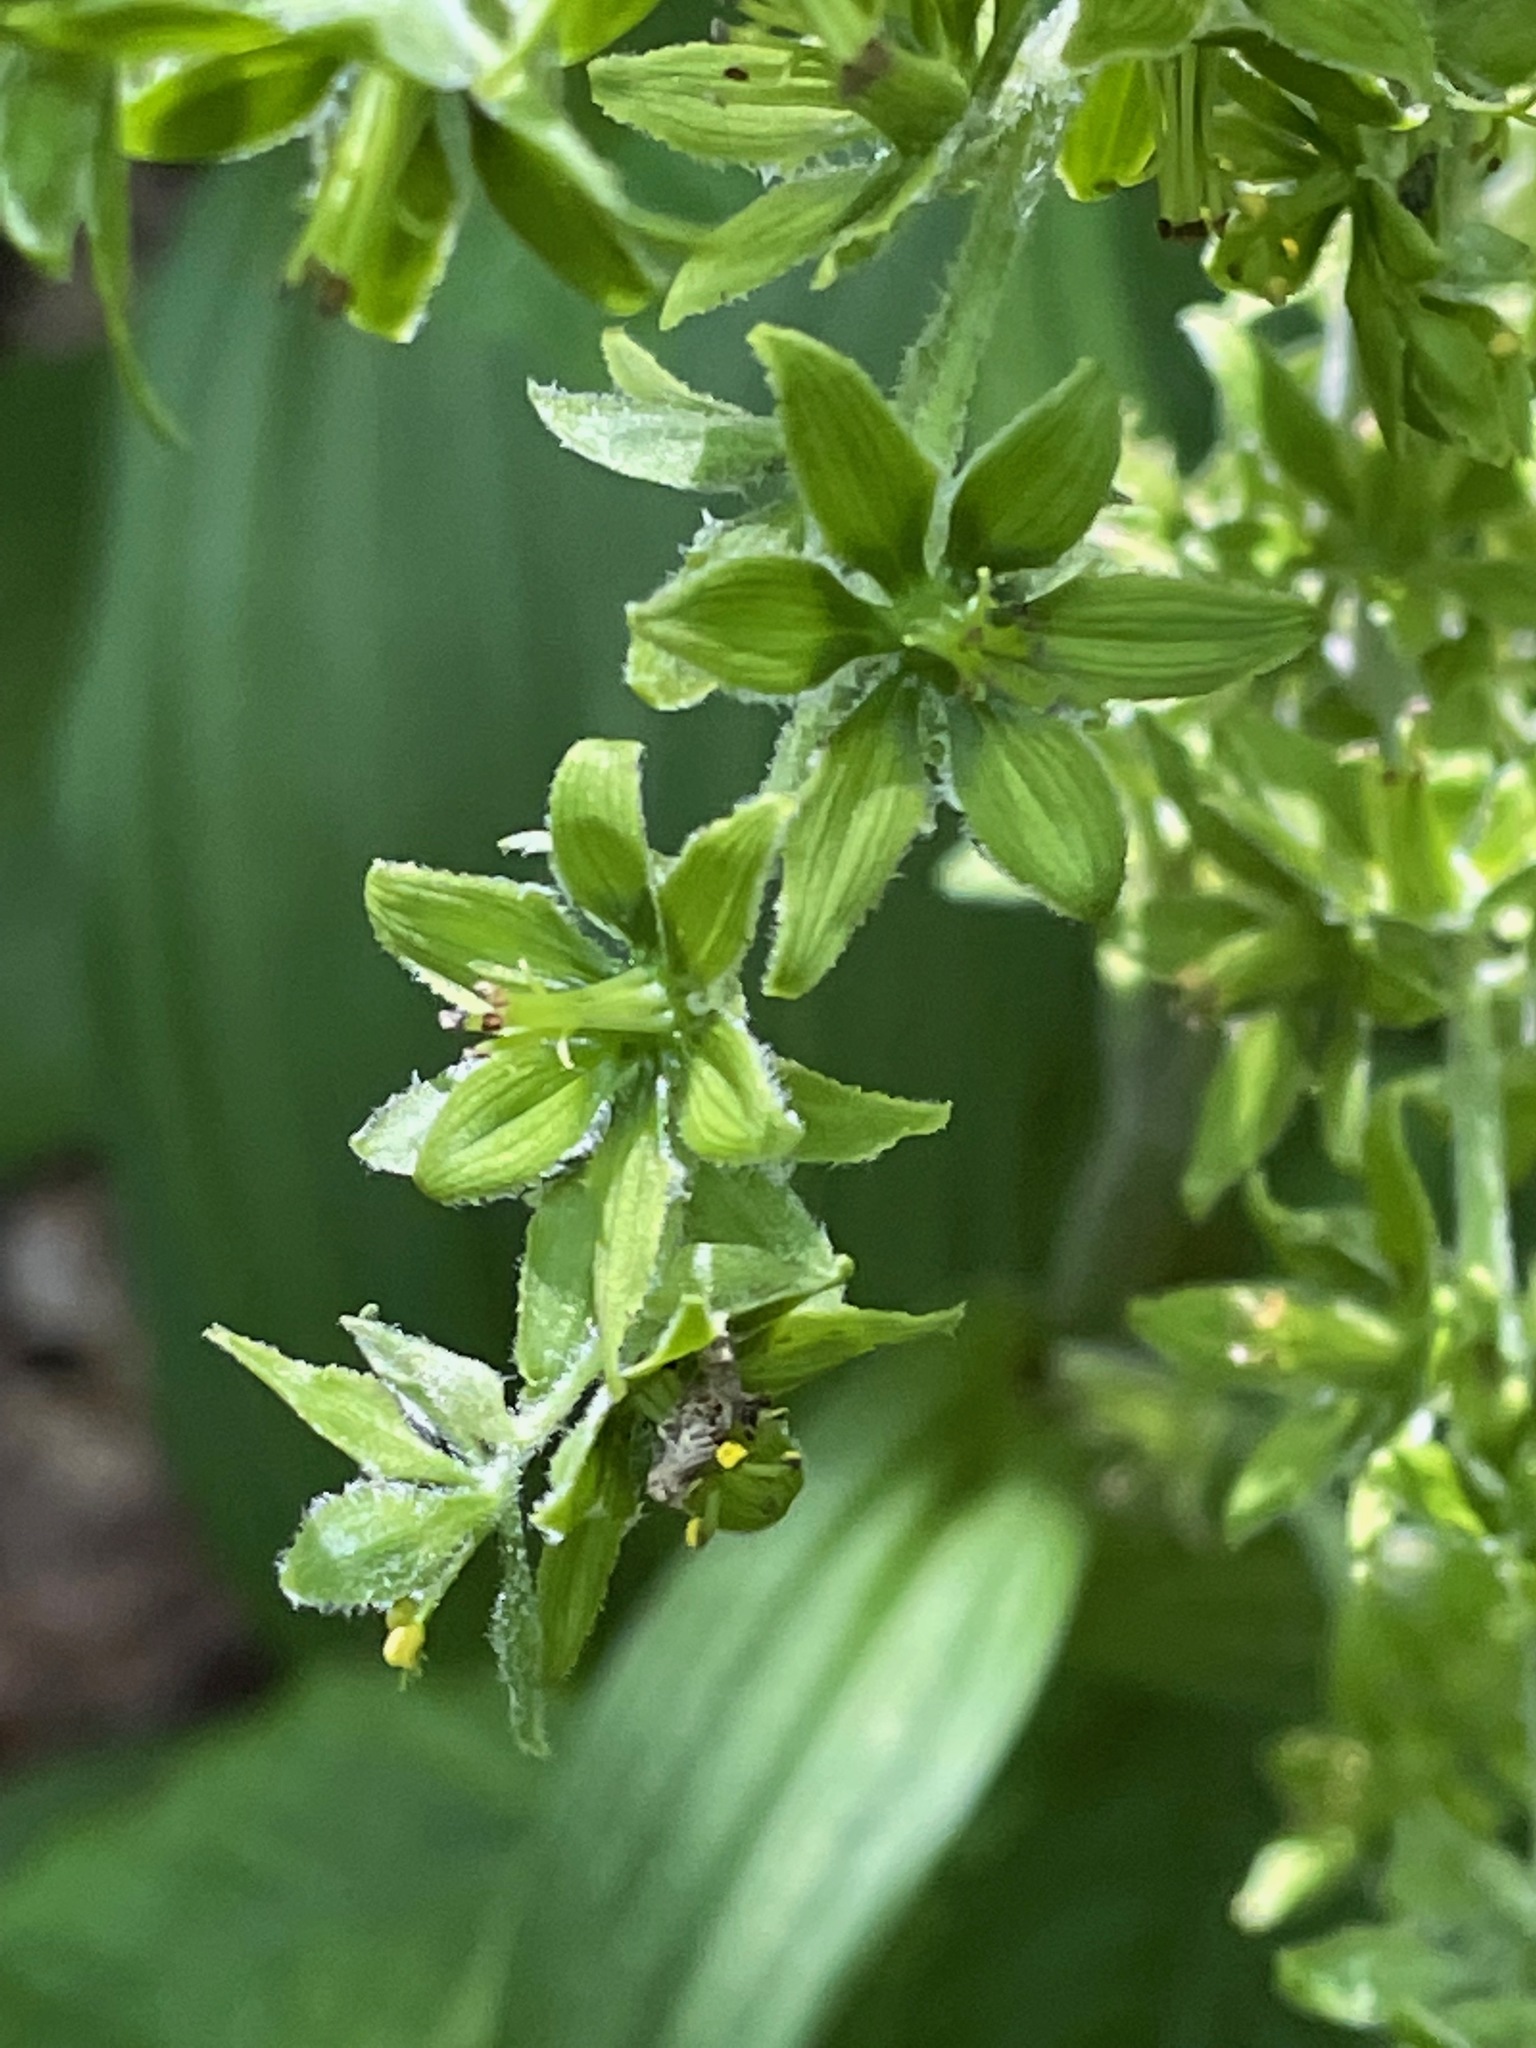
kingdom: Plantae
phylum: Tracheophyta
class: Liliopsida
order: Liliales
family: Melanthiaceae
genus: Veratrum
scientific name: Veratrum viride
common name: American false hellebore
